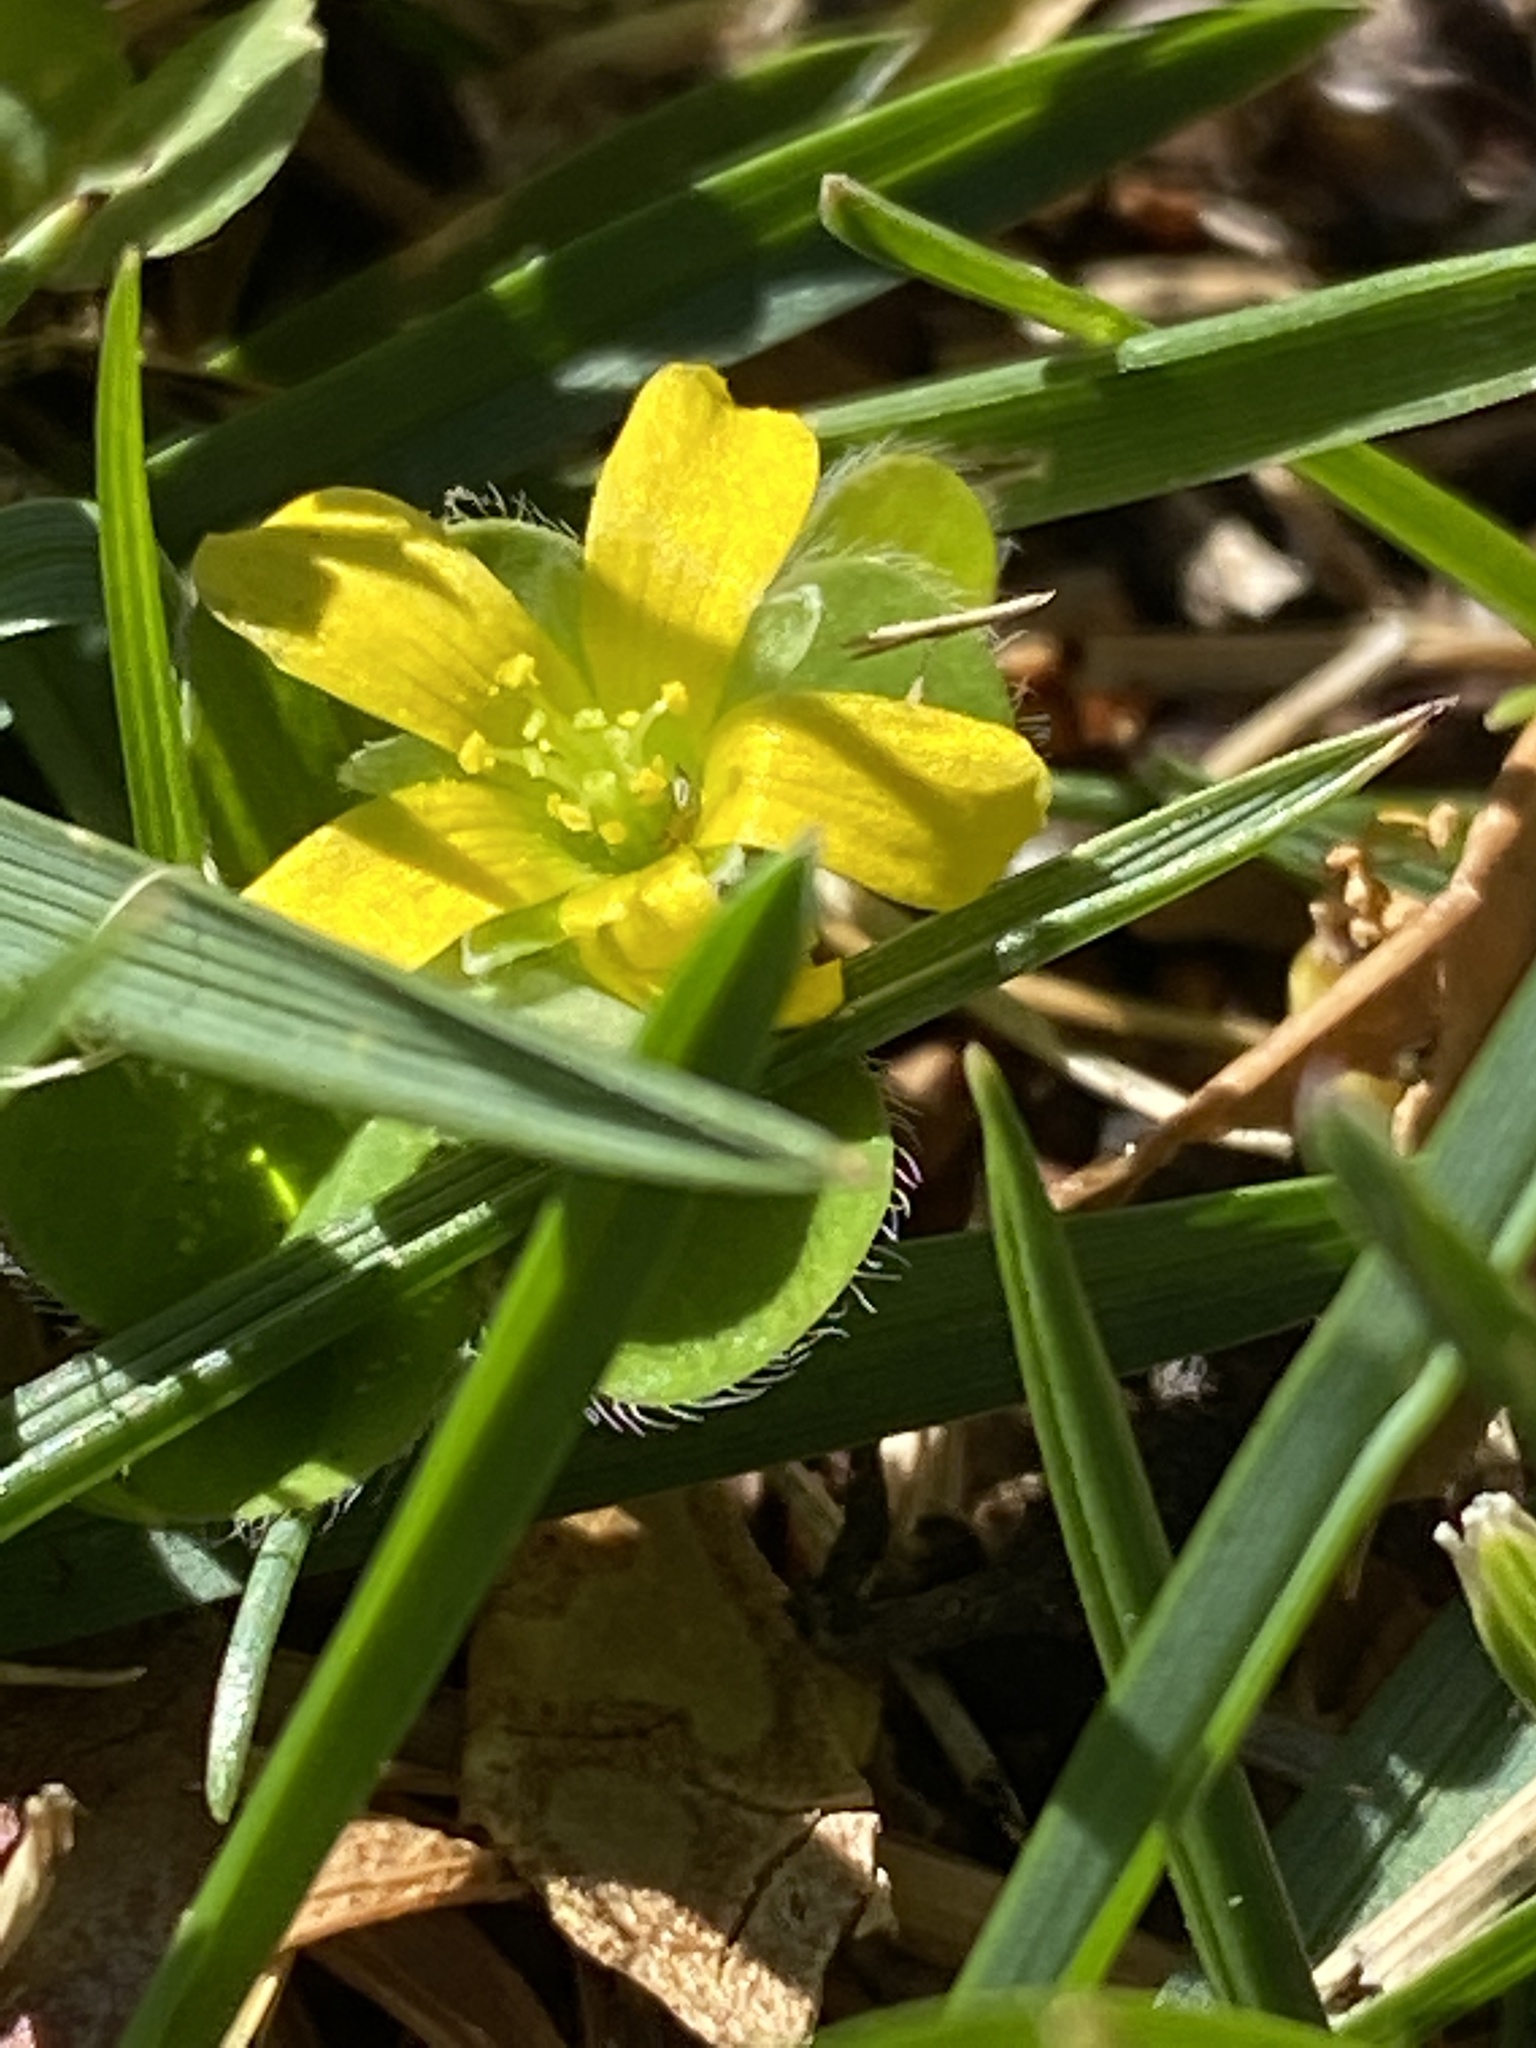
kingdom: Plantae
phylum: Tracheophyta
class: Magnoliopsida
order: Oxalidales
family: Oxalidaceae
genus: Oxalis
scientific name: Oxalis corniculata
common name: Procumbent yellow-sorrel
